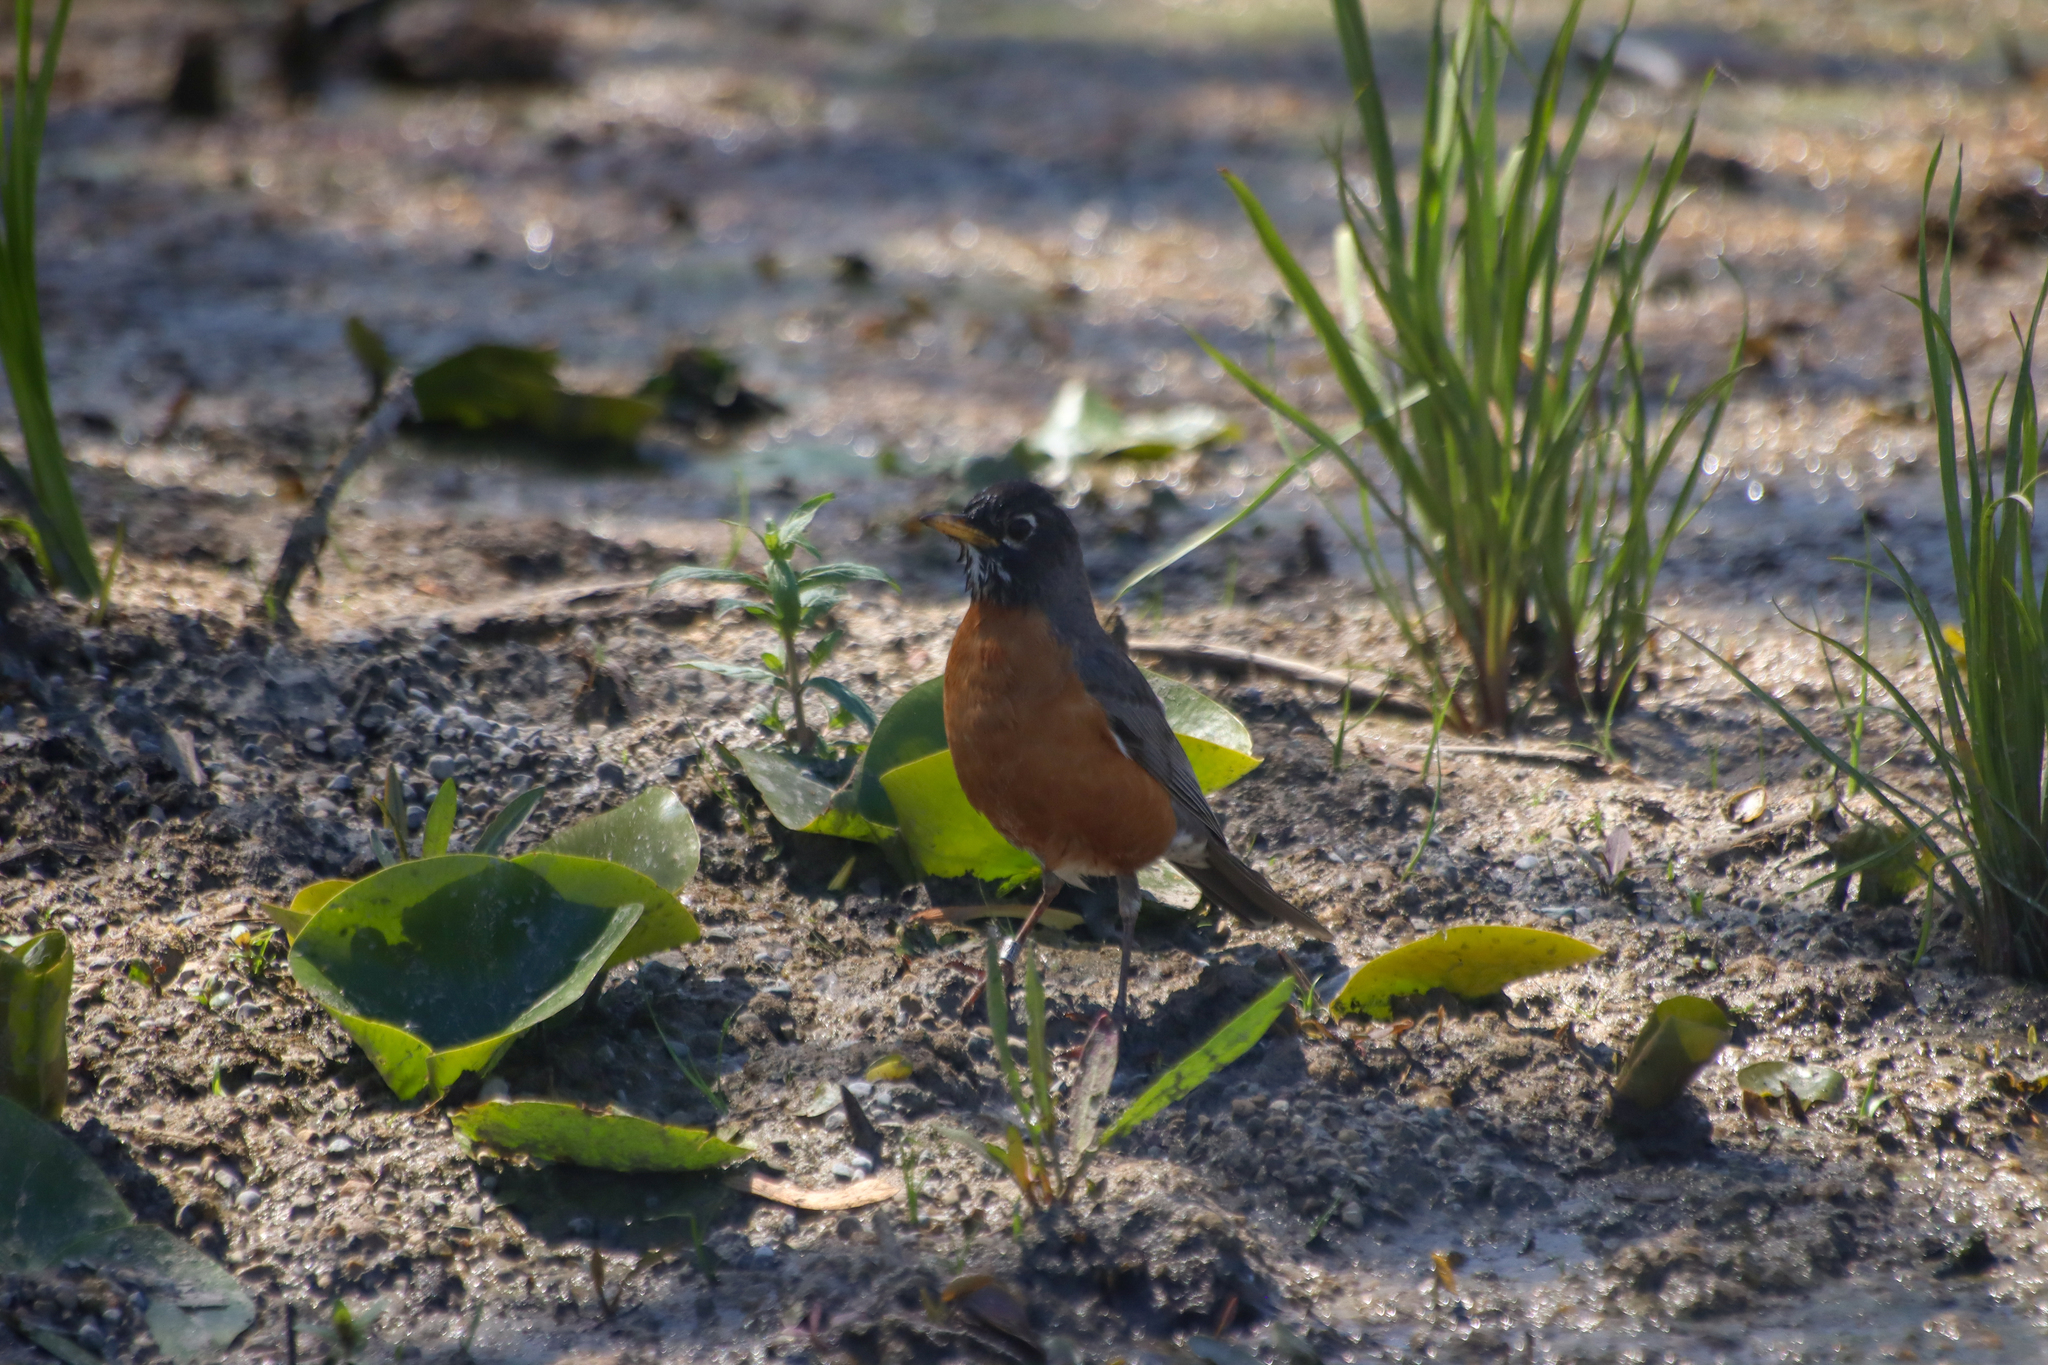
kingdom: Animalia
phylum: Chordata
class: Aves
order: Passeriformes
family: Turdidae
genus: Turdus
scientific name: Turdus migratorius
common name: American robin
